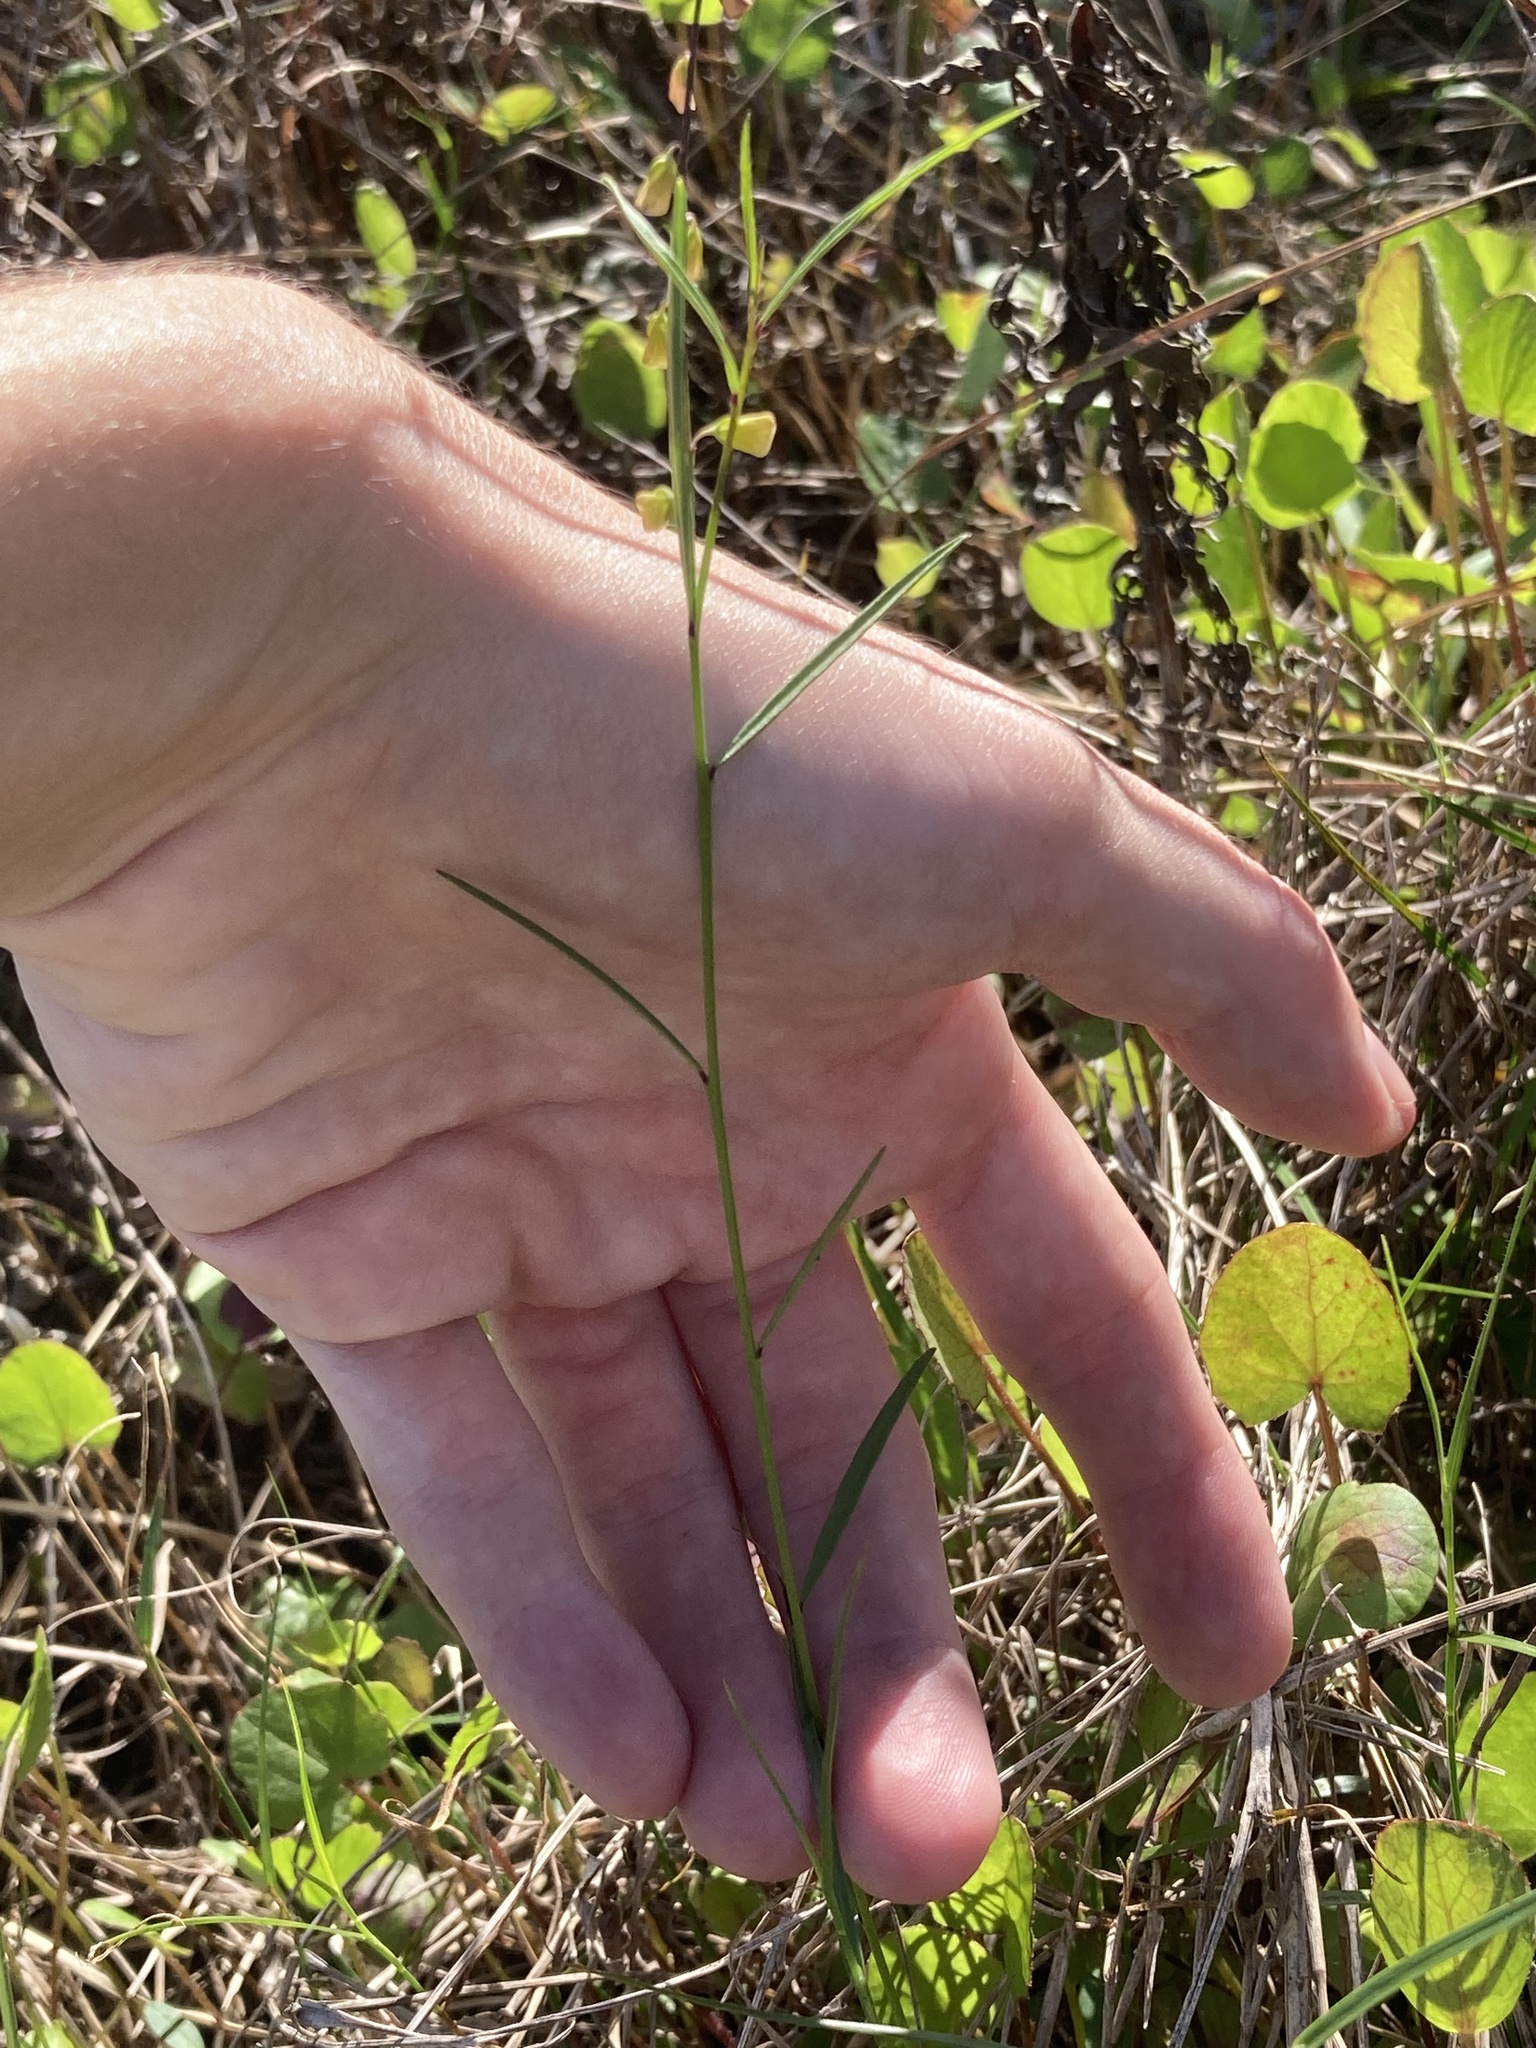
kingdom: Plantae
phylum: Tracheophyta
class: Magnoliopsida
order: Fabales
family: Polygalaceae
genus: Asemeia
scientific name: Asemeia grandiflora
